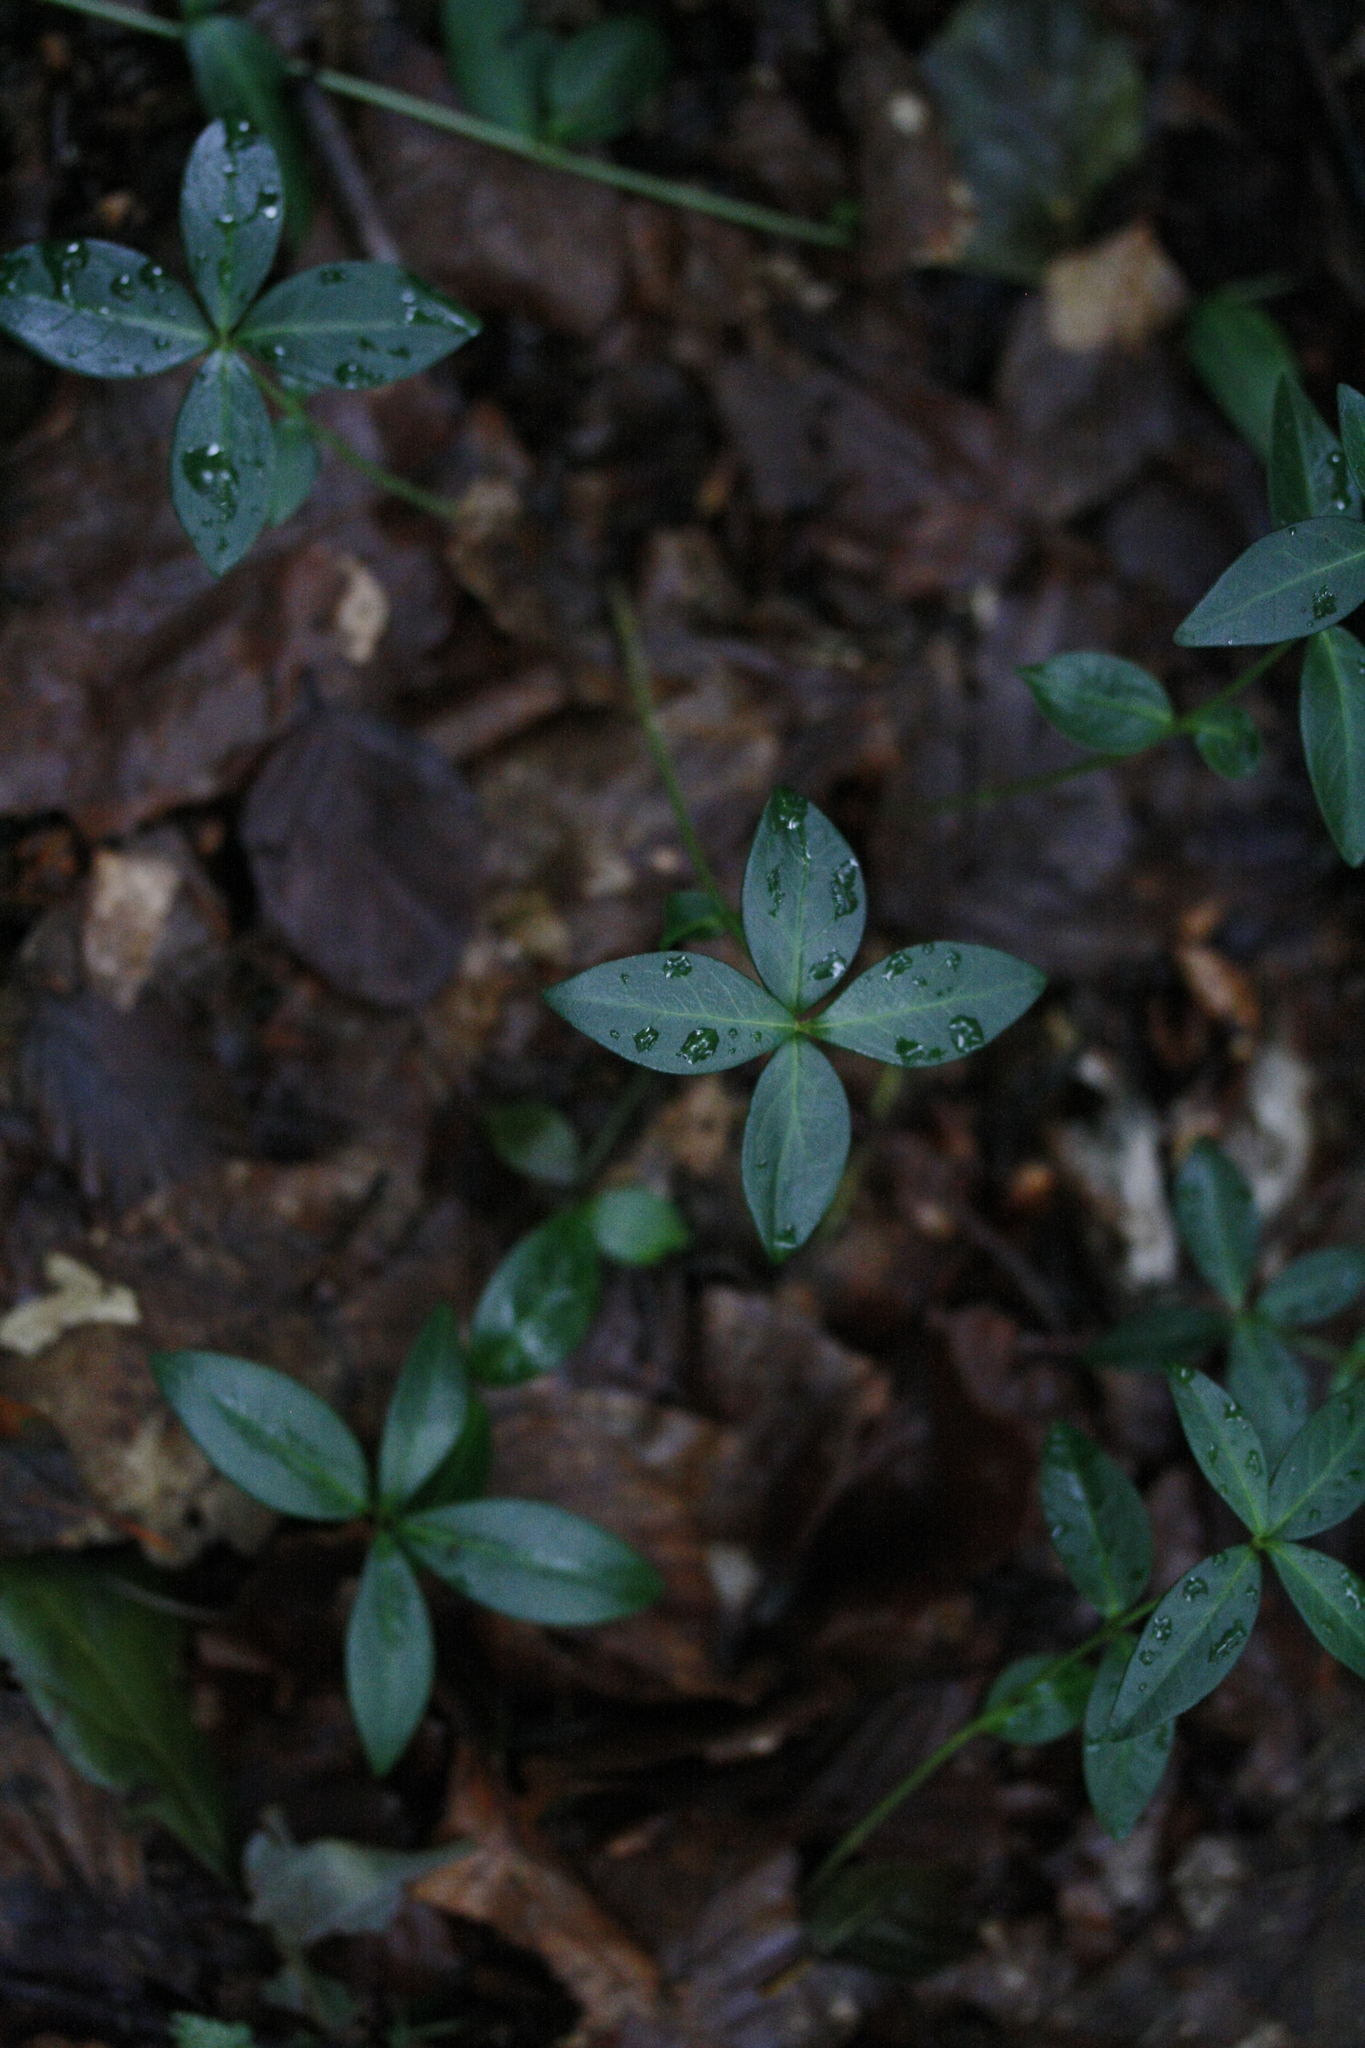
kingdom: Plantae
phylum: Tracheophyta
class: Magnoliopsida
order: Gentianales
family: Apocynaceae
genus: Vinca
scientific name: Vinca minor
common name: Lesser periwinkle
